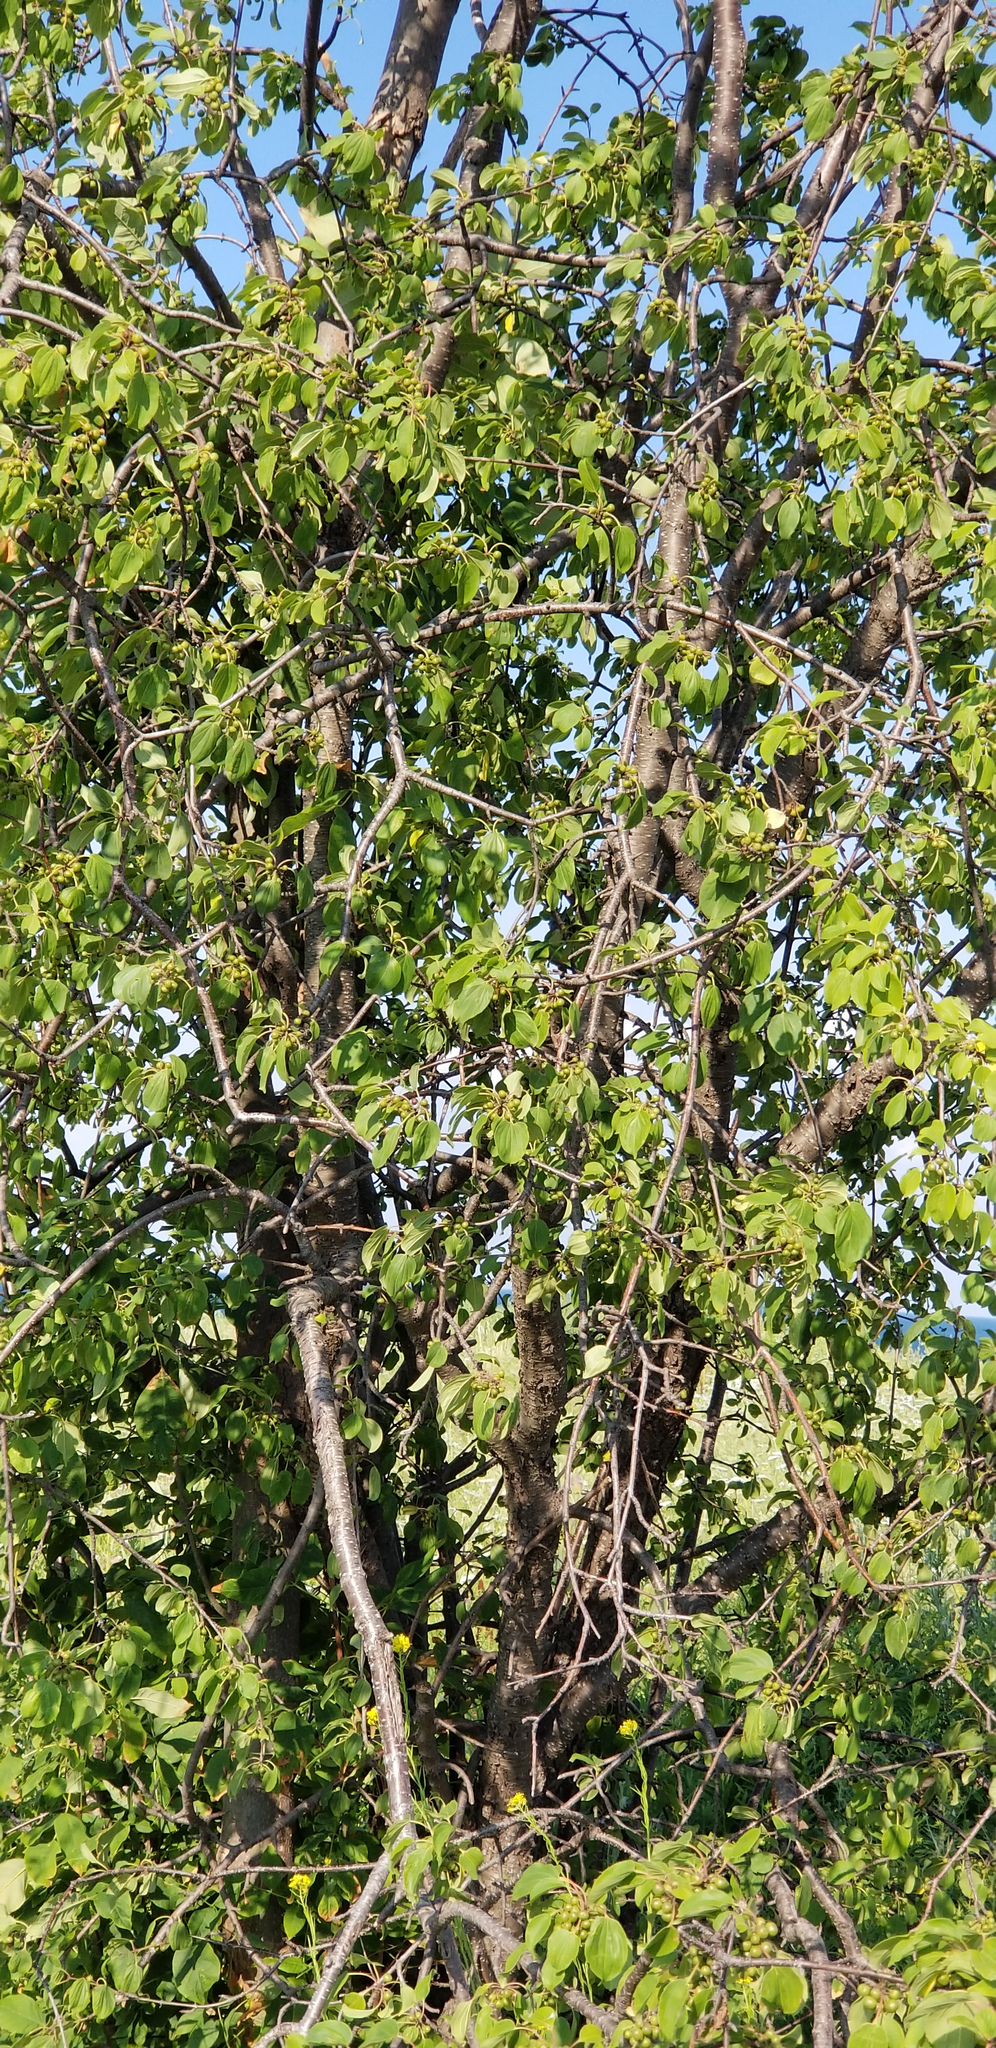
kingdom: Plantae
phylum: Tracheophyta
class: Magnoliopsida
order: Rosales
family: Rhamnaceae
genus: Rhamnus
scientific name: Rhamnus cathartica
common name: Common buckthorn
